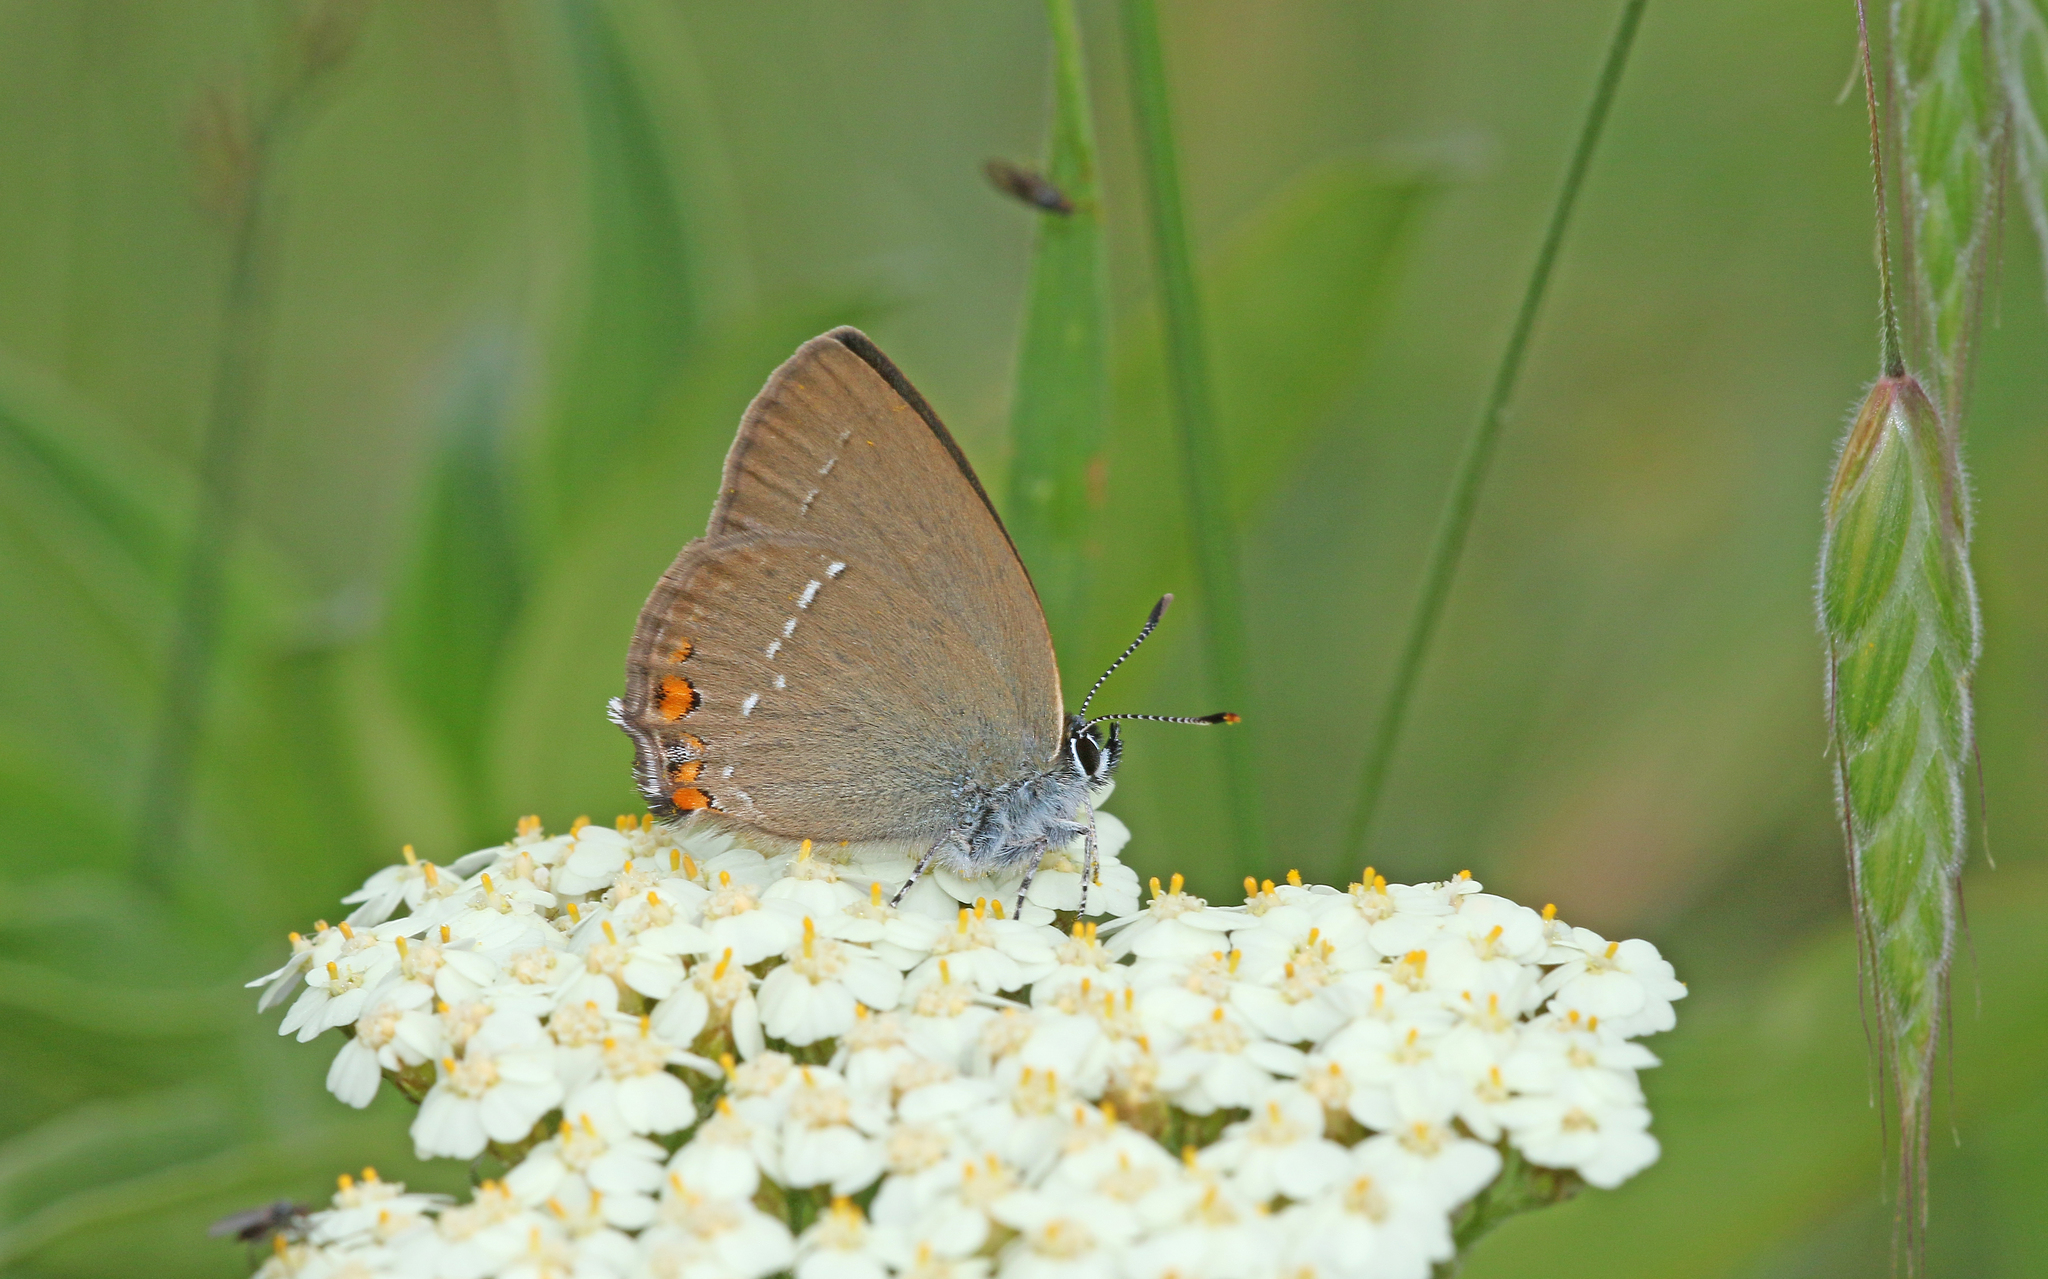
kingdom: Animalia
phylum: Arthropoda
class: Insecta
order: Lepidoptera
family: Lycaenidae
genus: Strymon
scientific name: Strymon acaciae
